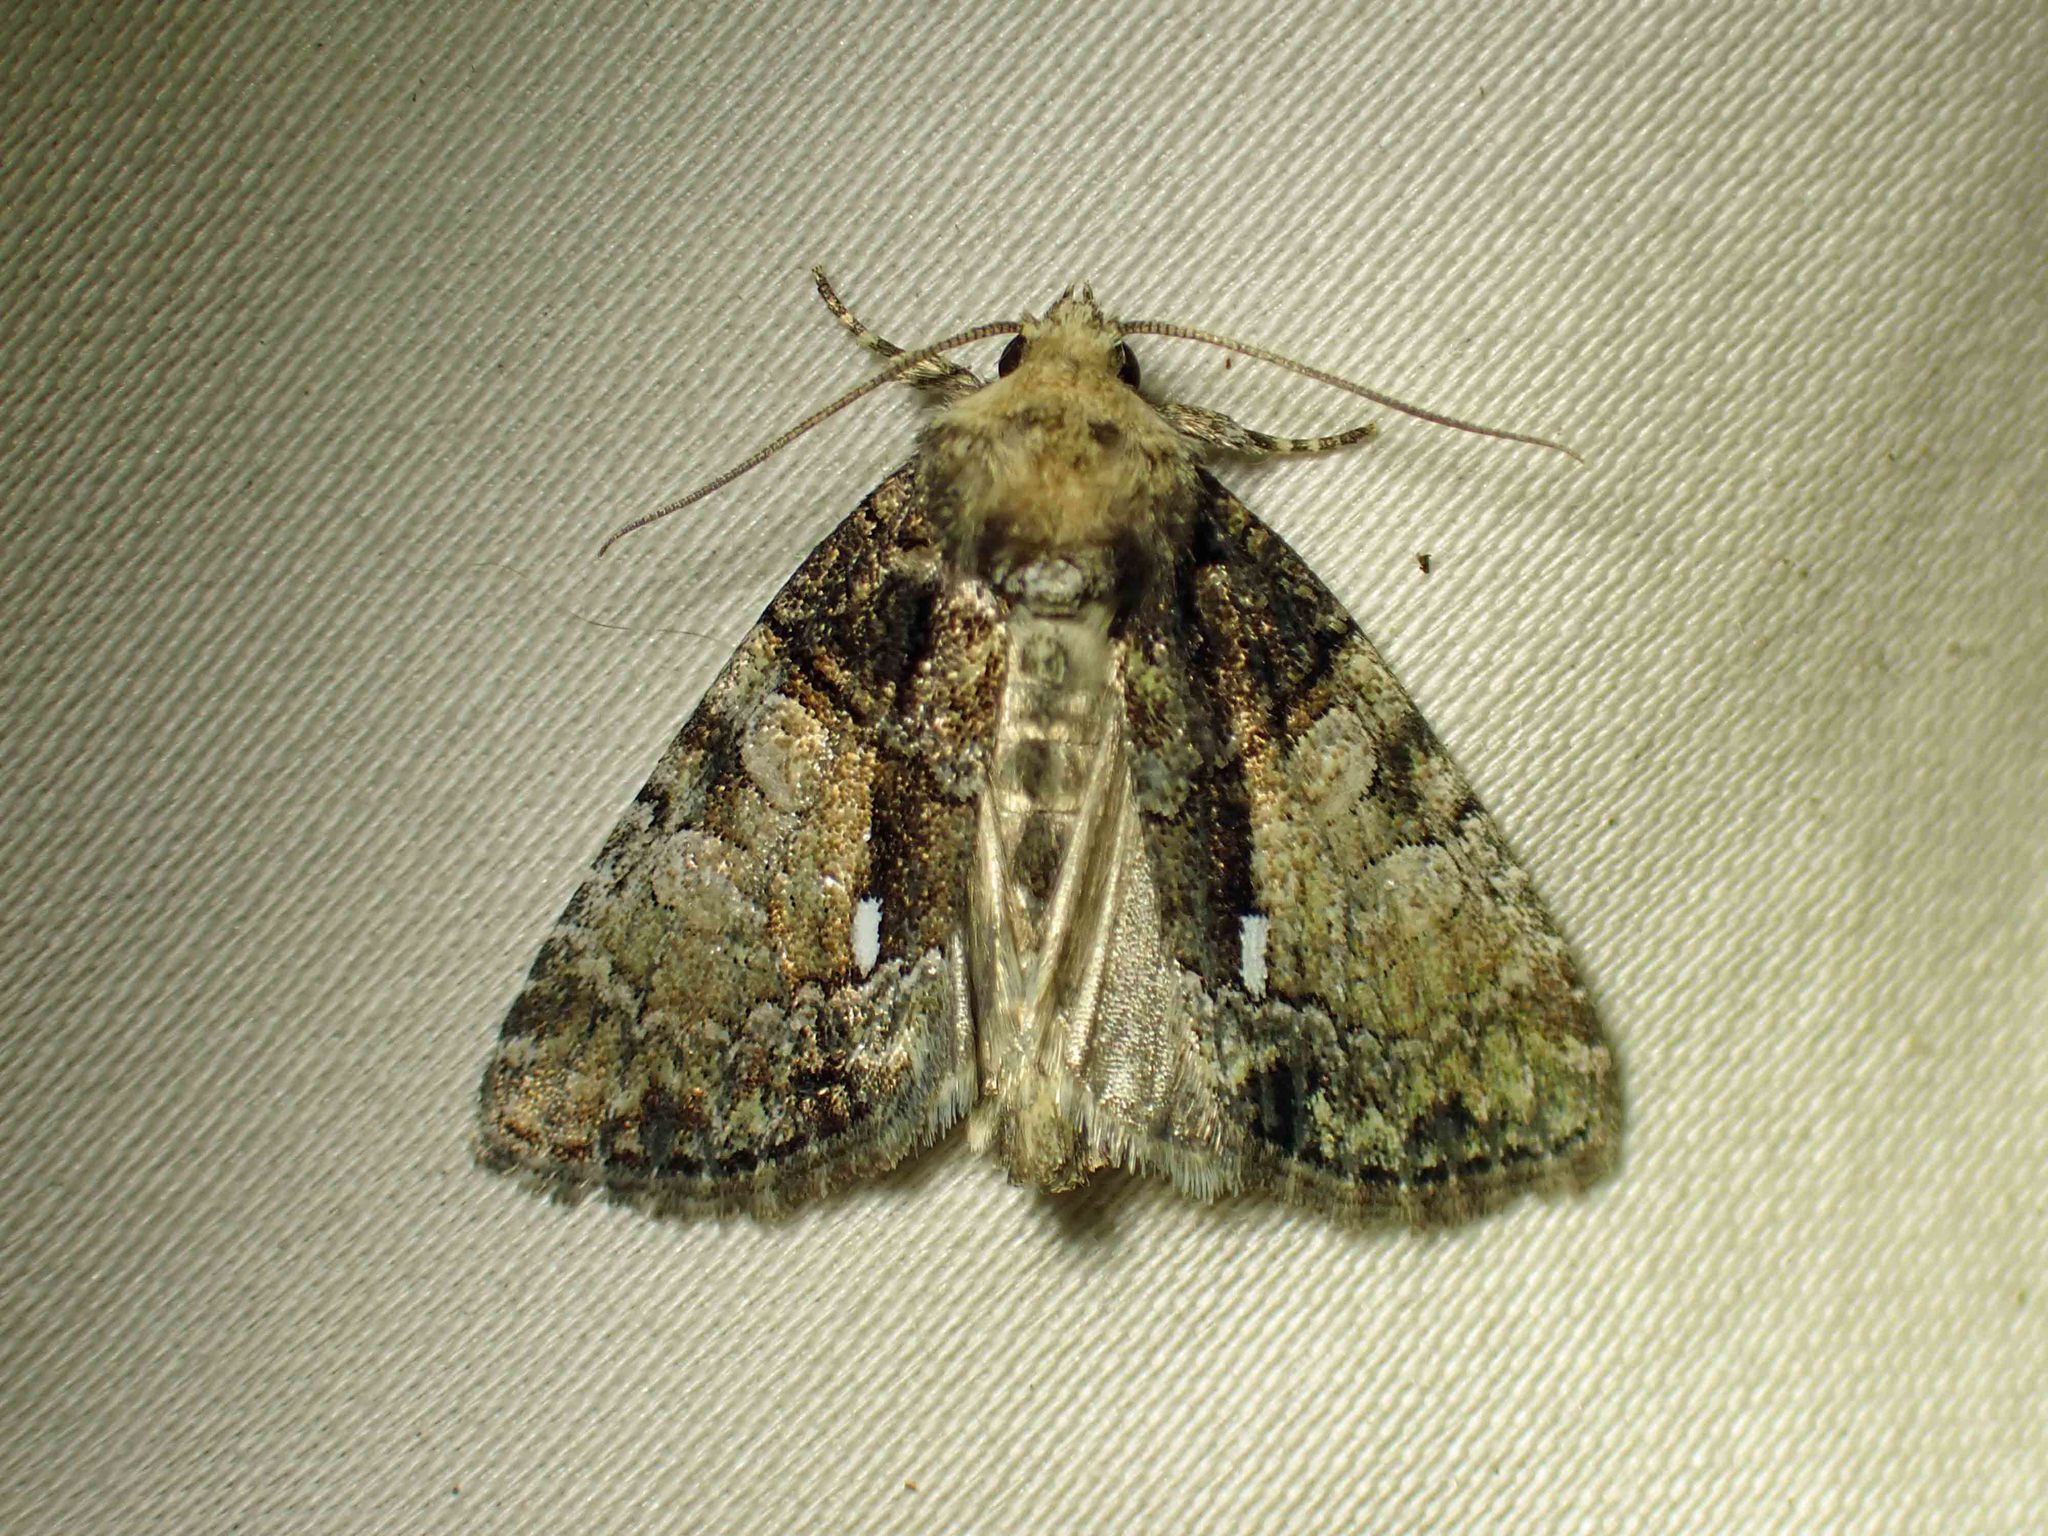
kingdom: Animalia
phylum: Arthropoda
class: Insecta
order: Lepidoptera
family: Noctuidae
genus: Chytonix
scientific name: Chytonix palliatricula
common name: Cloaked marvel
